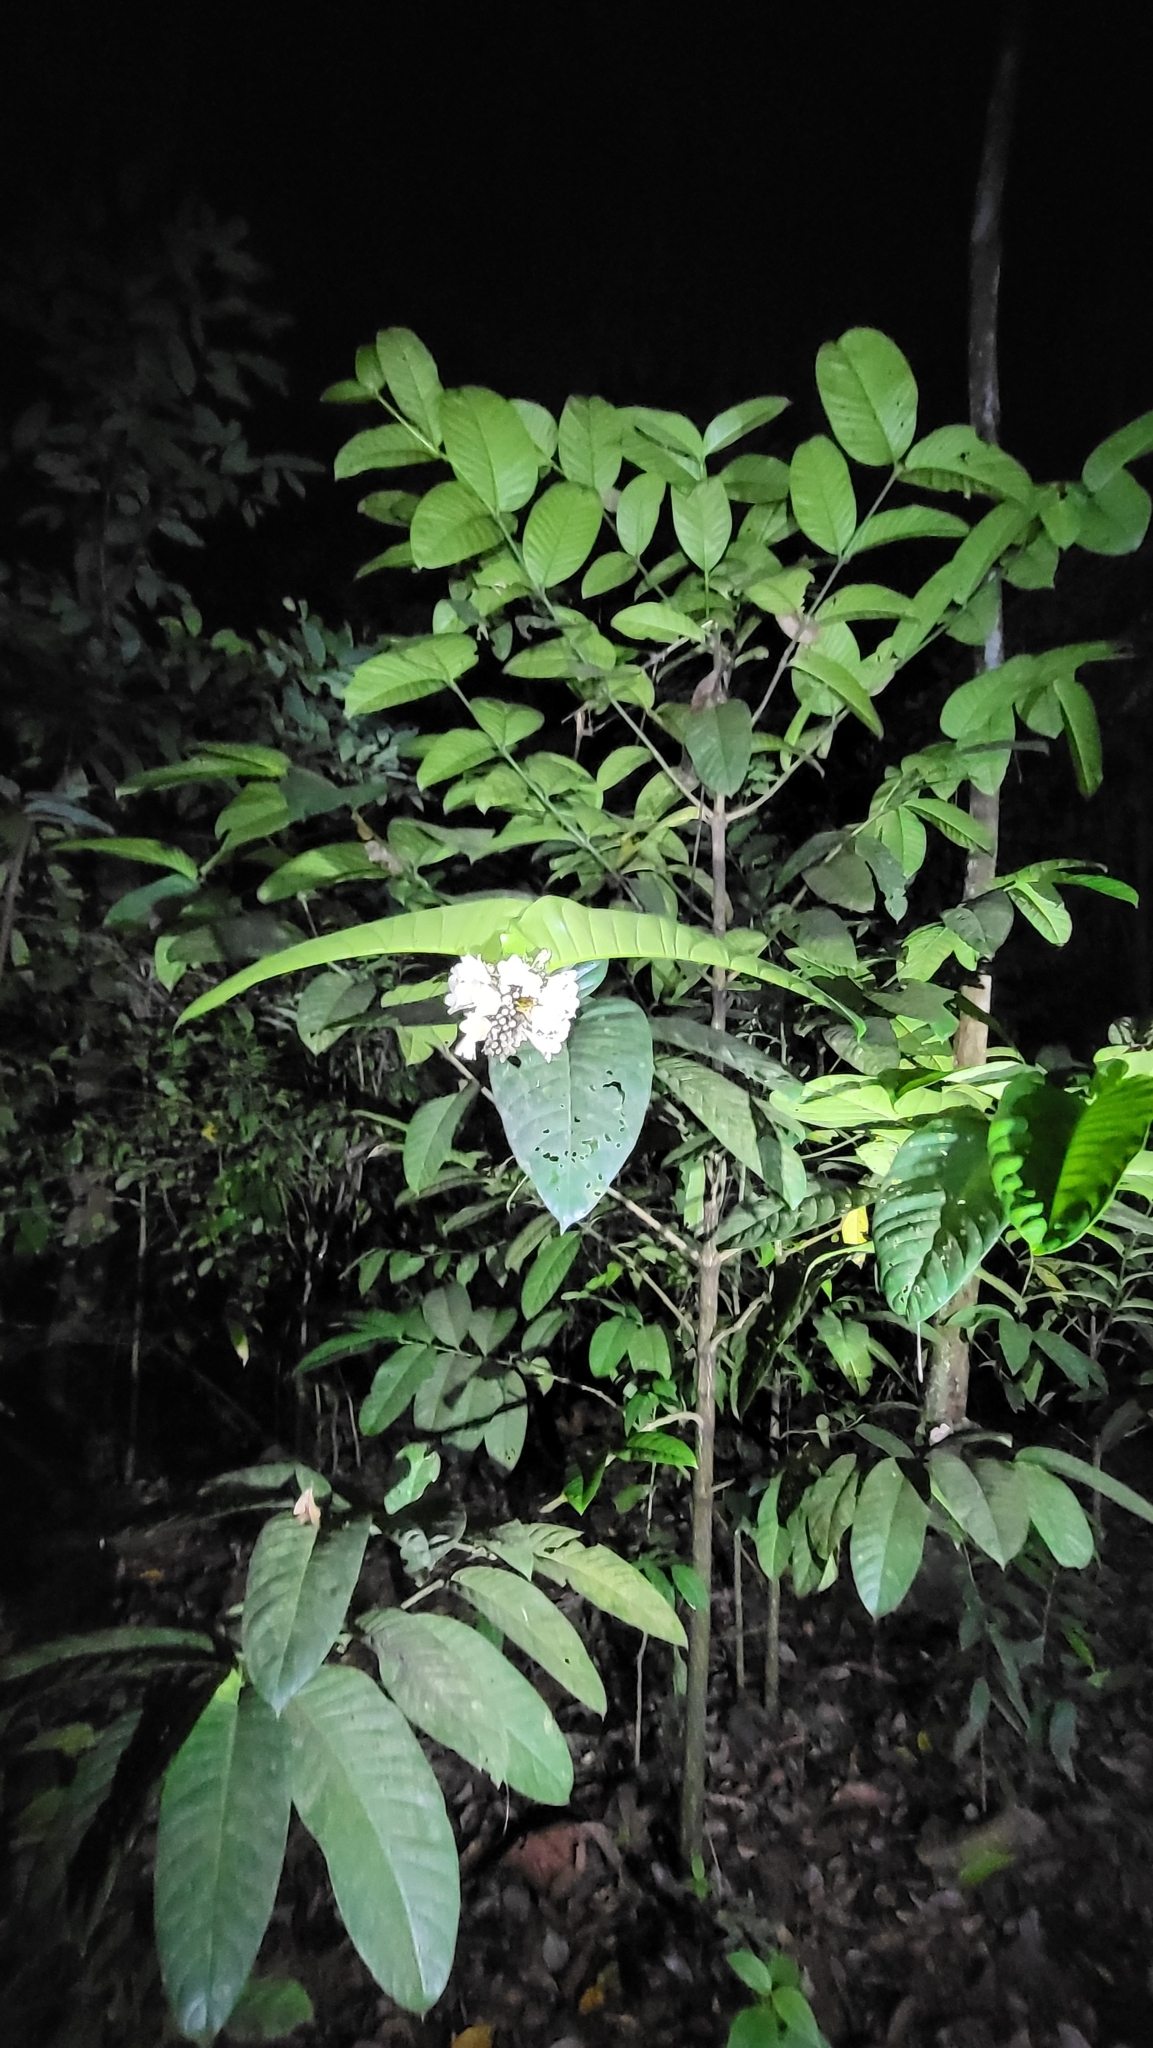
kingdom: Plantae
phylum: Tracheophyta
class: Magnoliopsida
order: Gentianales
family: Gentianaceae
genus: Utania
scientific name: Utania racemosa
